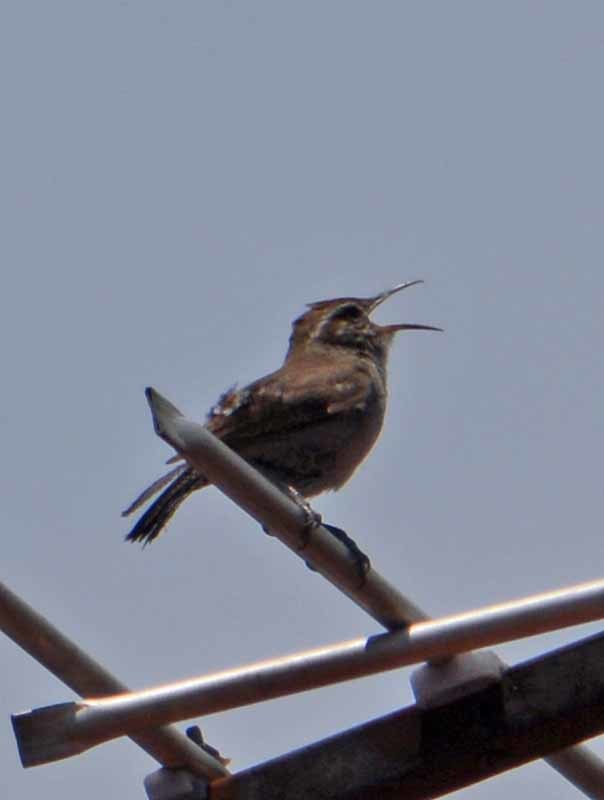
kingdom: Animalia
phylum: Chordata
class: Aves
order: Passeriformes
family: Troglodytidae
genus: Thryomanes
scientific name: Thryomanes bewickii
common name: Bewick's wren
